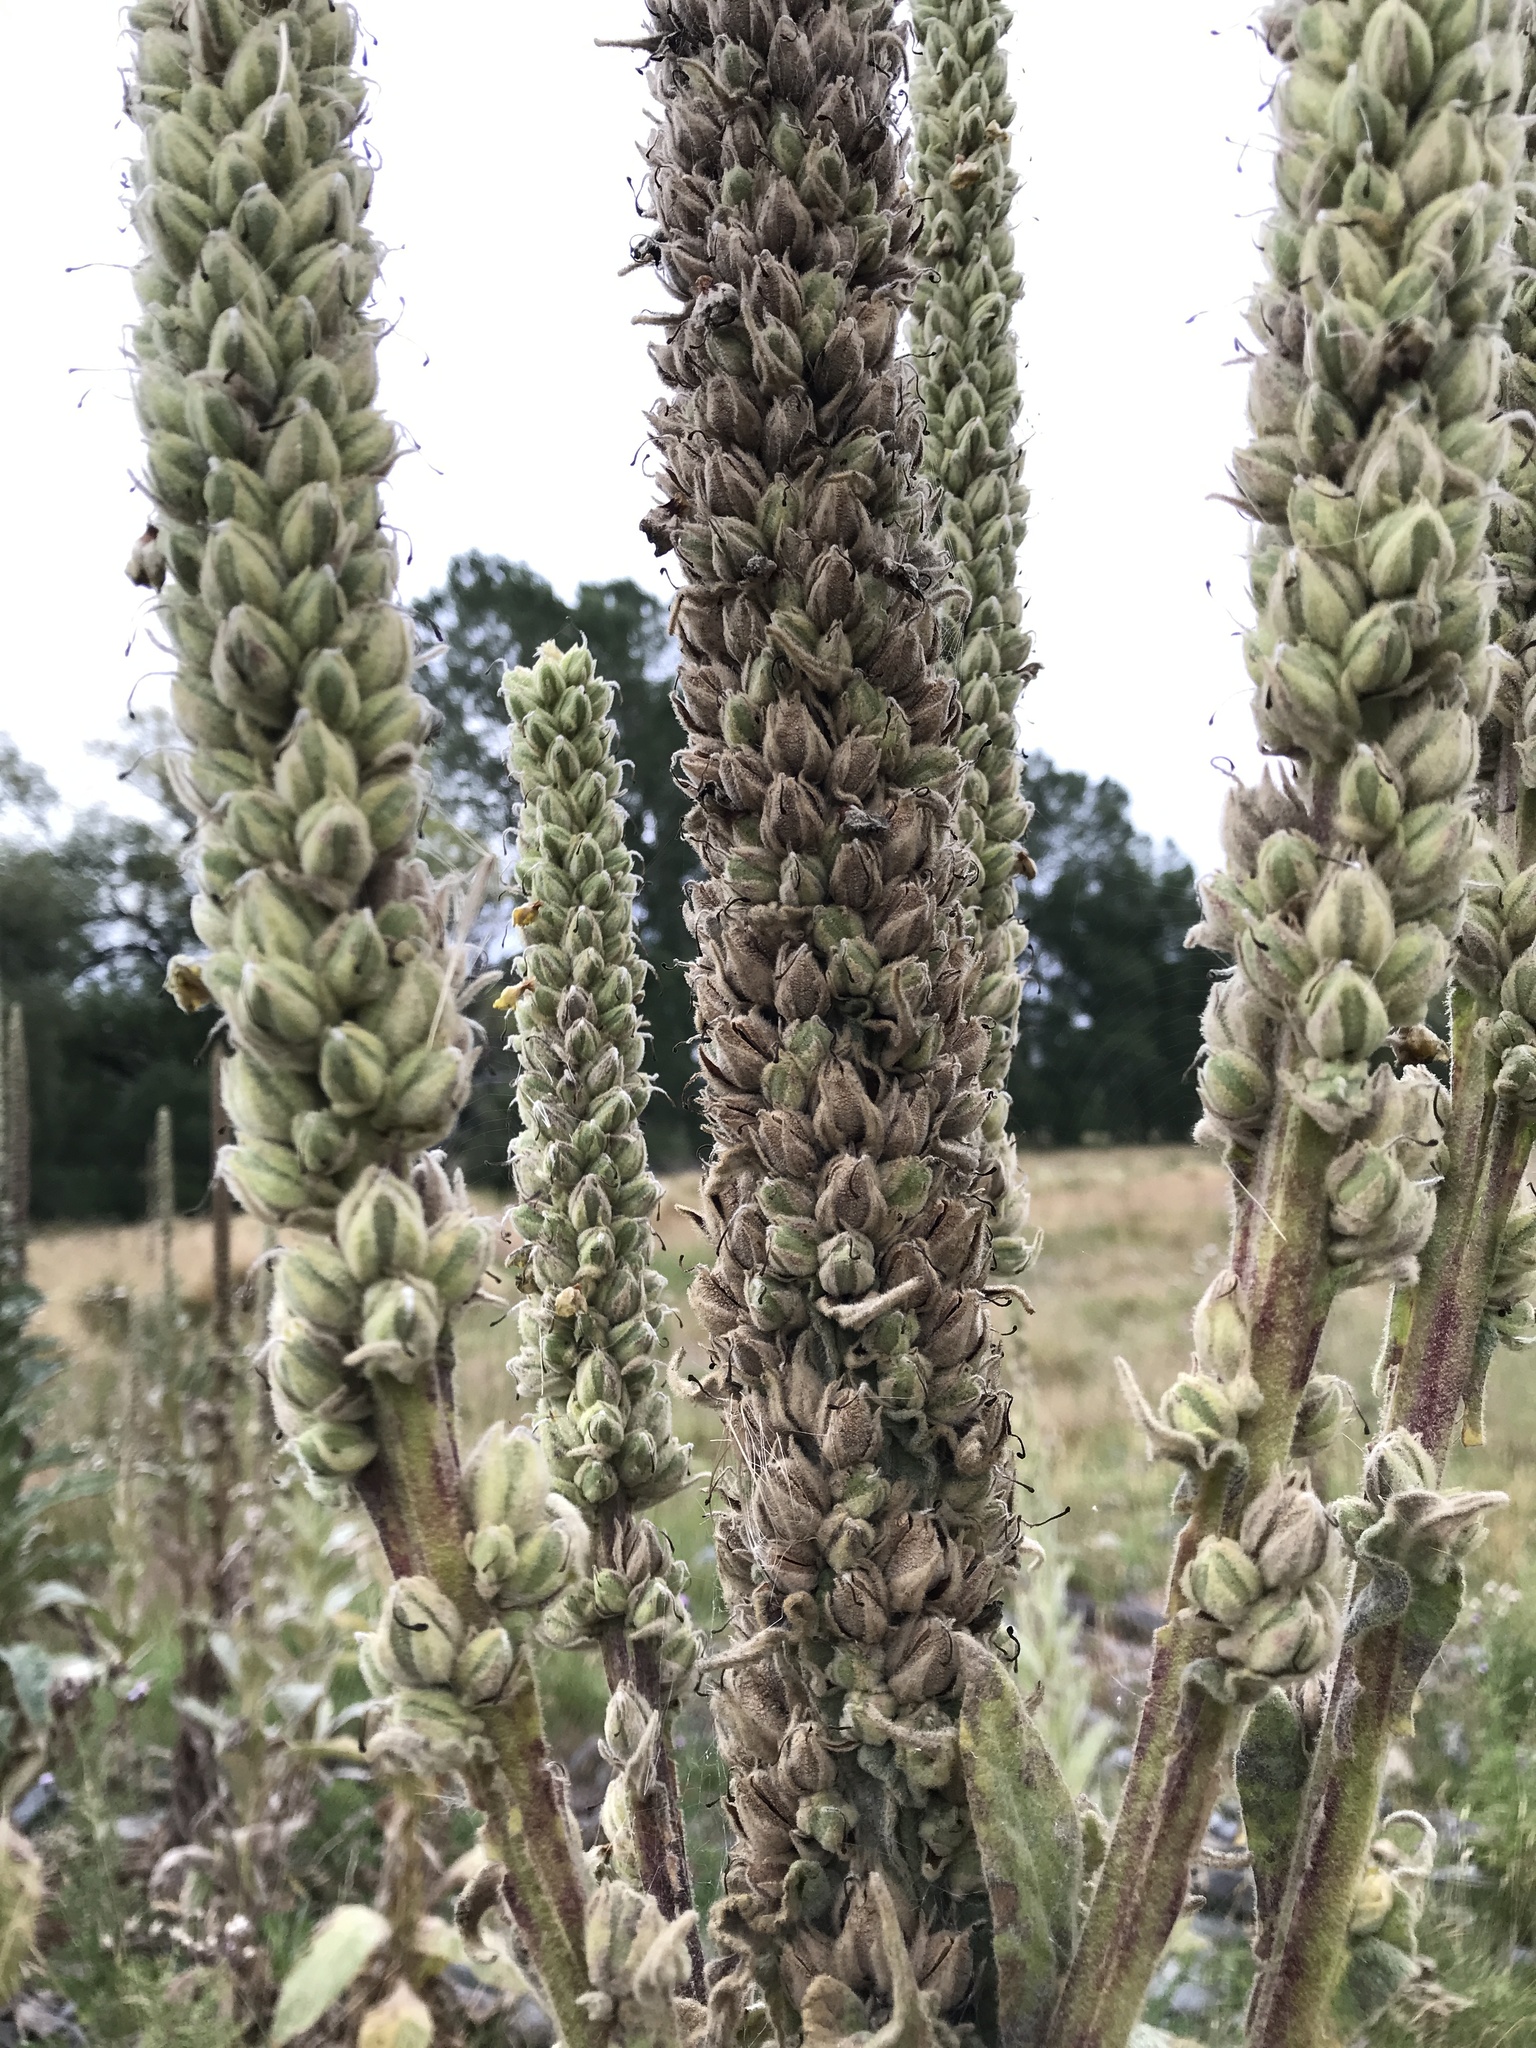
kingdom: Plantae
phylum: Tracheophyta
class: Magnoliopsida
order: Lamiales
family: Scrophulariaceae
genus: Verbascum
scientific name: Verbascum thapsus
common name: Common mullein
